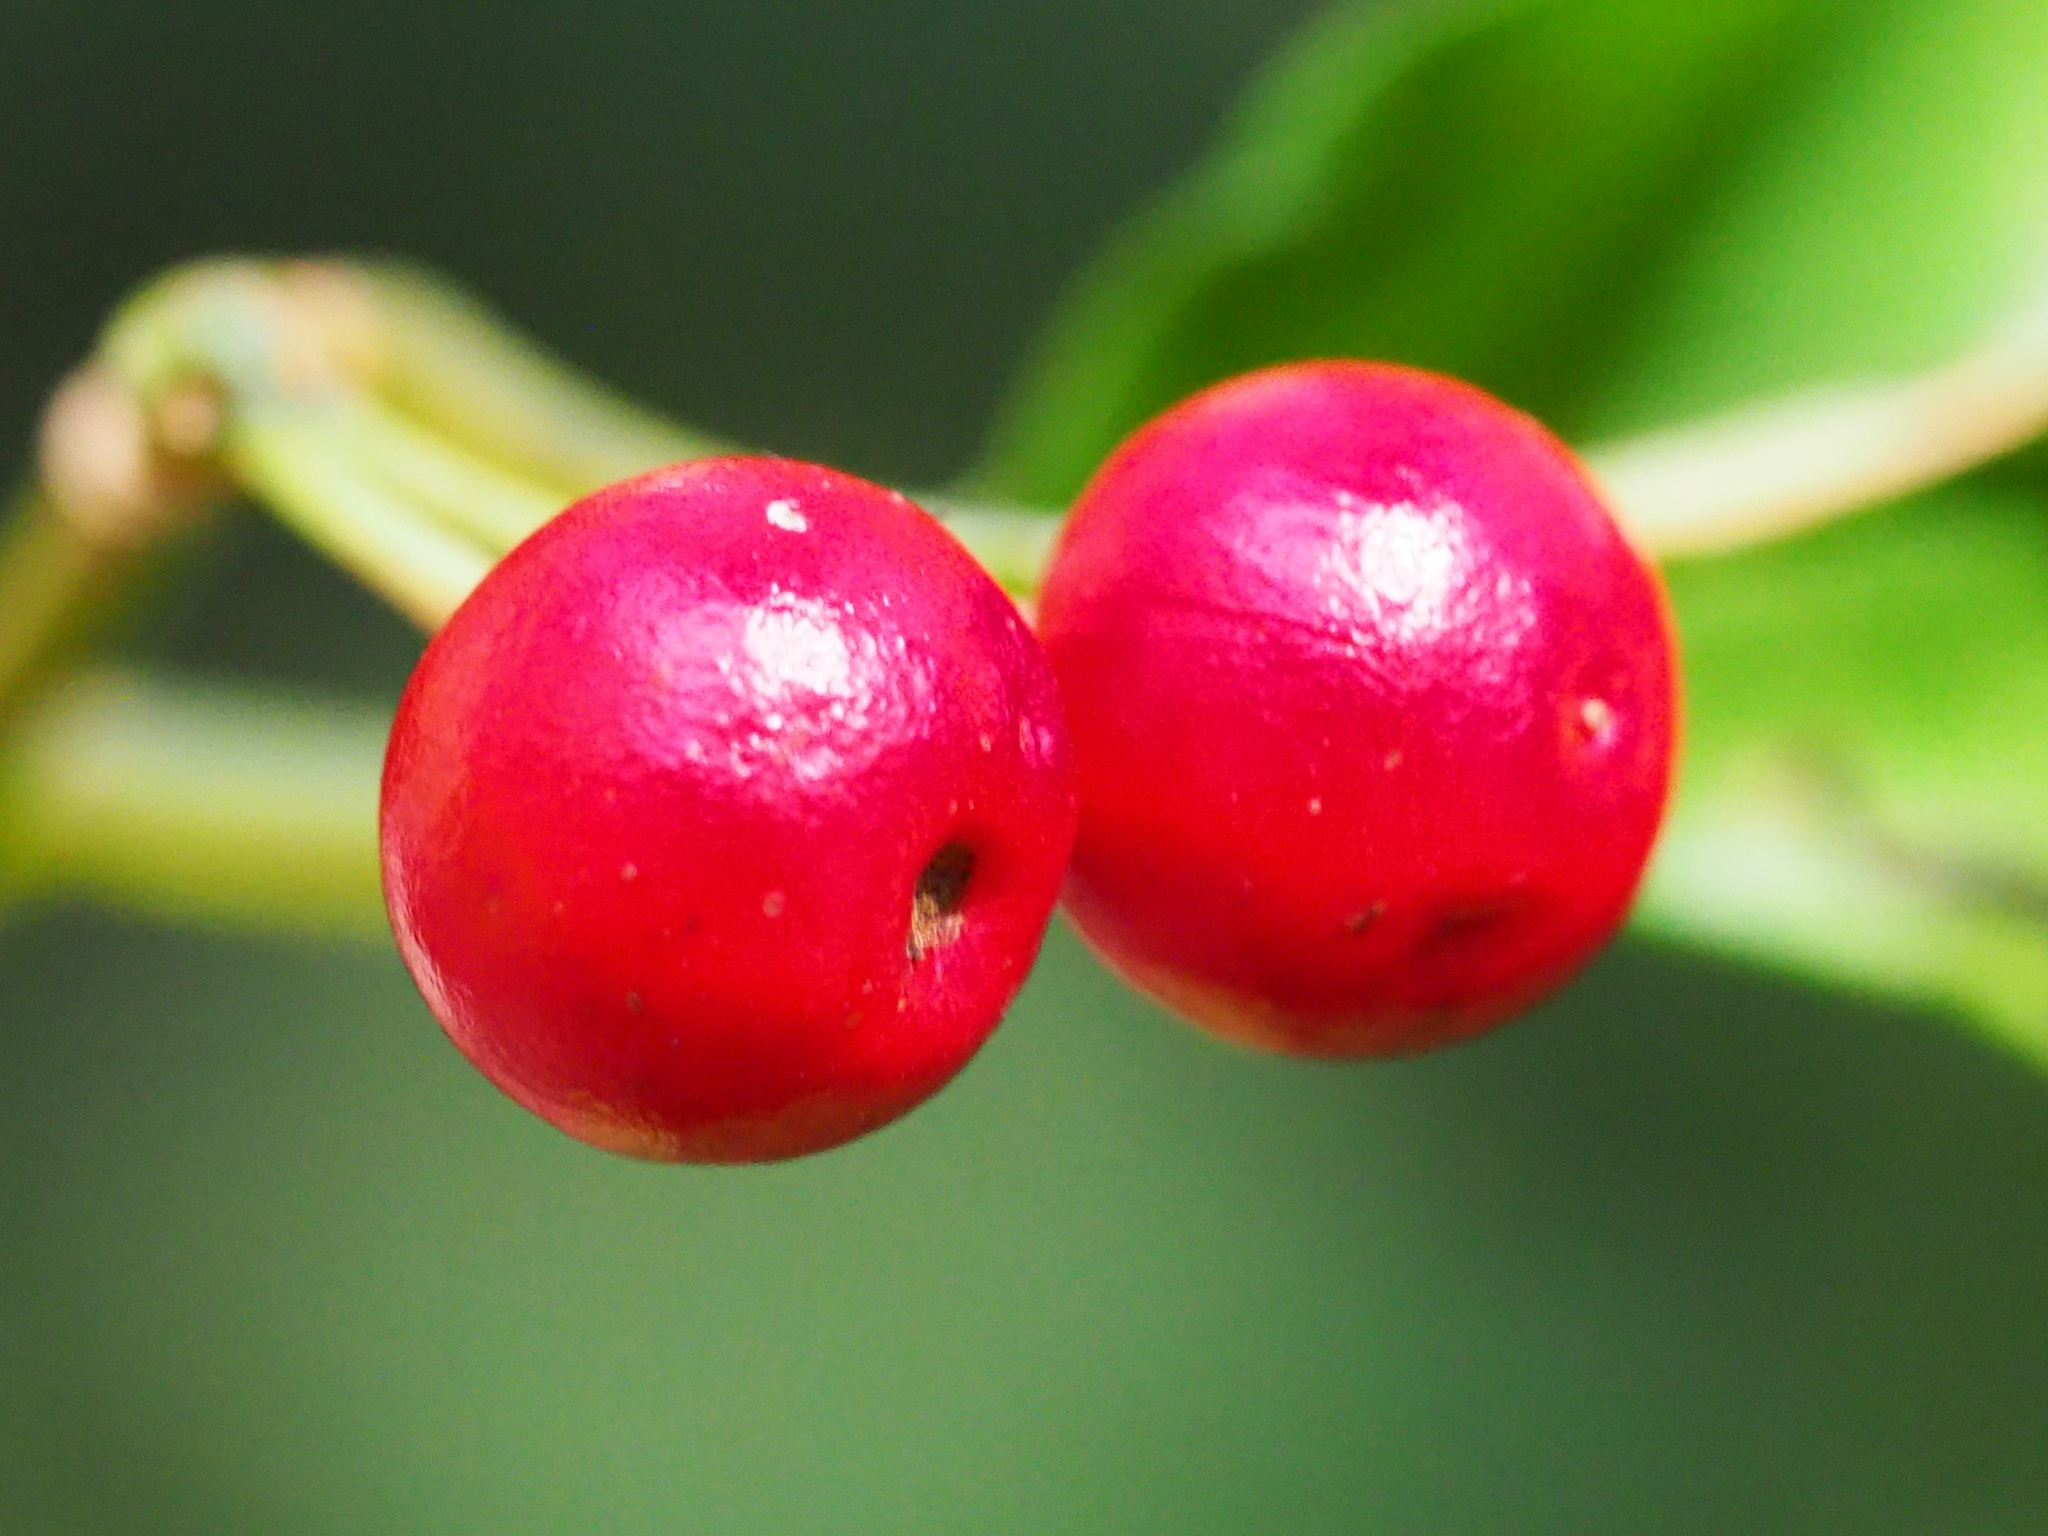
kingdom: Plantae
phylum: Tracheophyta
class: Magnoliopsida
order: Ericales
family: Primulaceae
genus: Ardisia
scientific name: Ardisia crenata
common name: Hen's eyes
